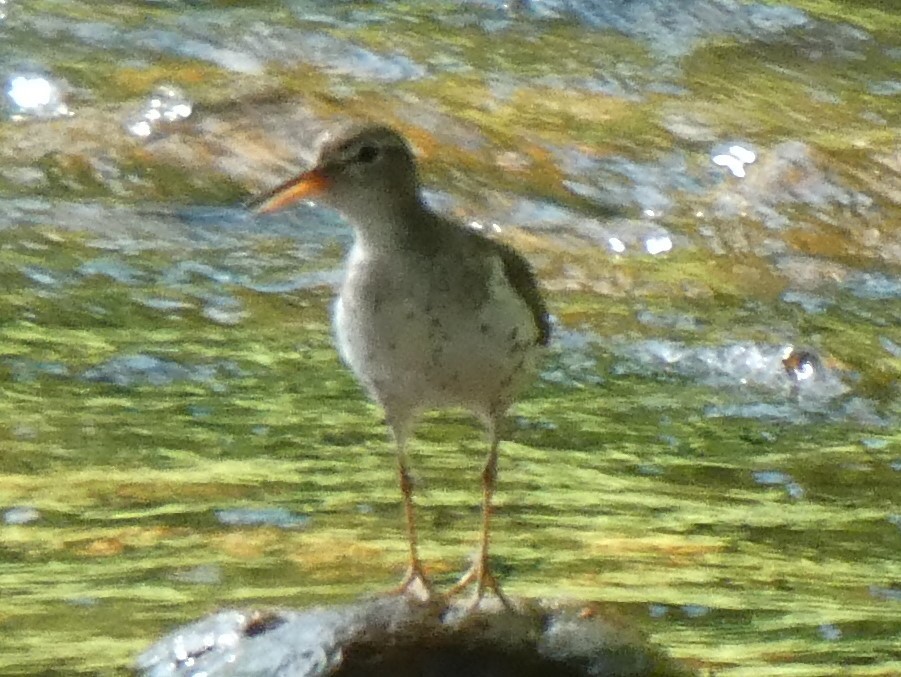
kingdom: Animalia
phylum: Chordata
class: Aves
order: Charadriiformes
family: Scolopacidae
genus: Actitis
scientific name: Actitis macularius
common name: Spotted sandpiper
